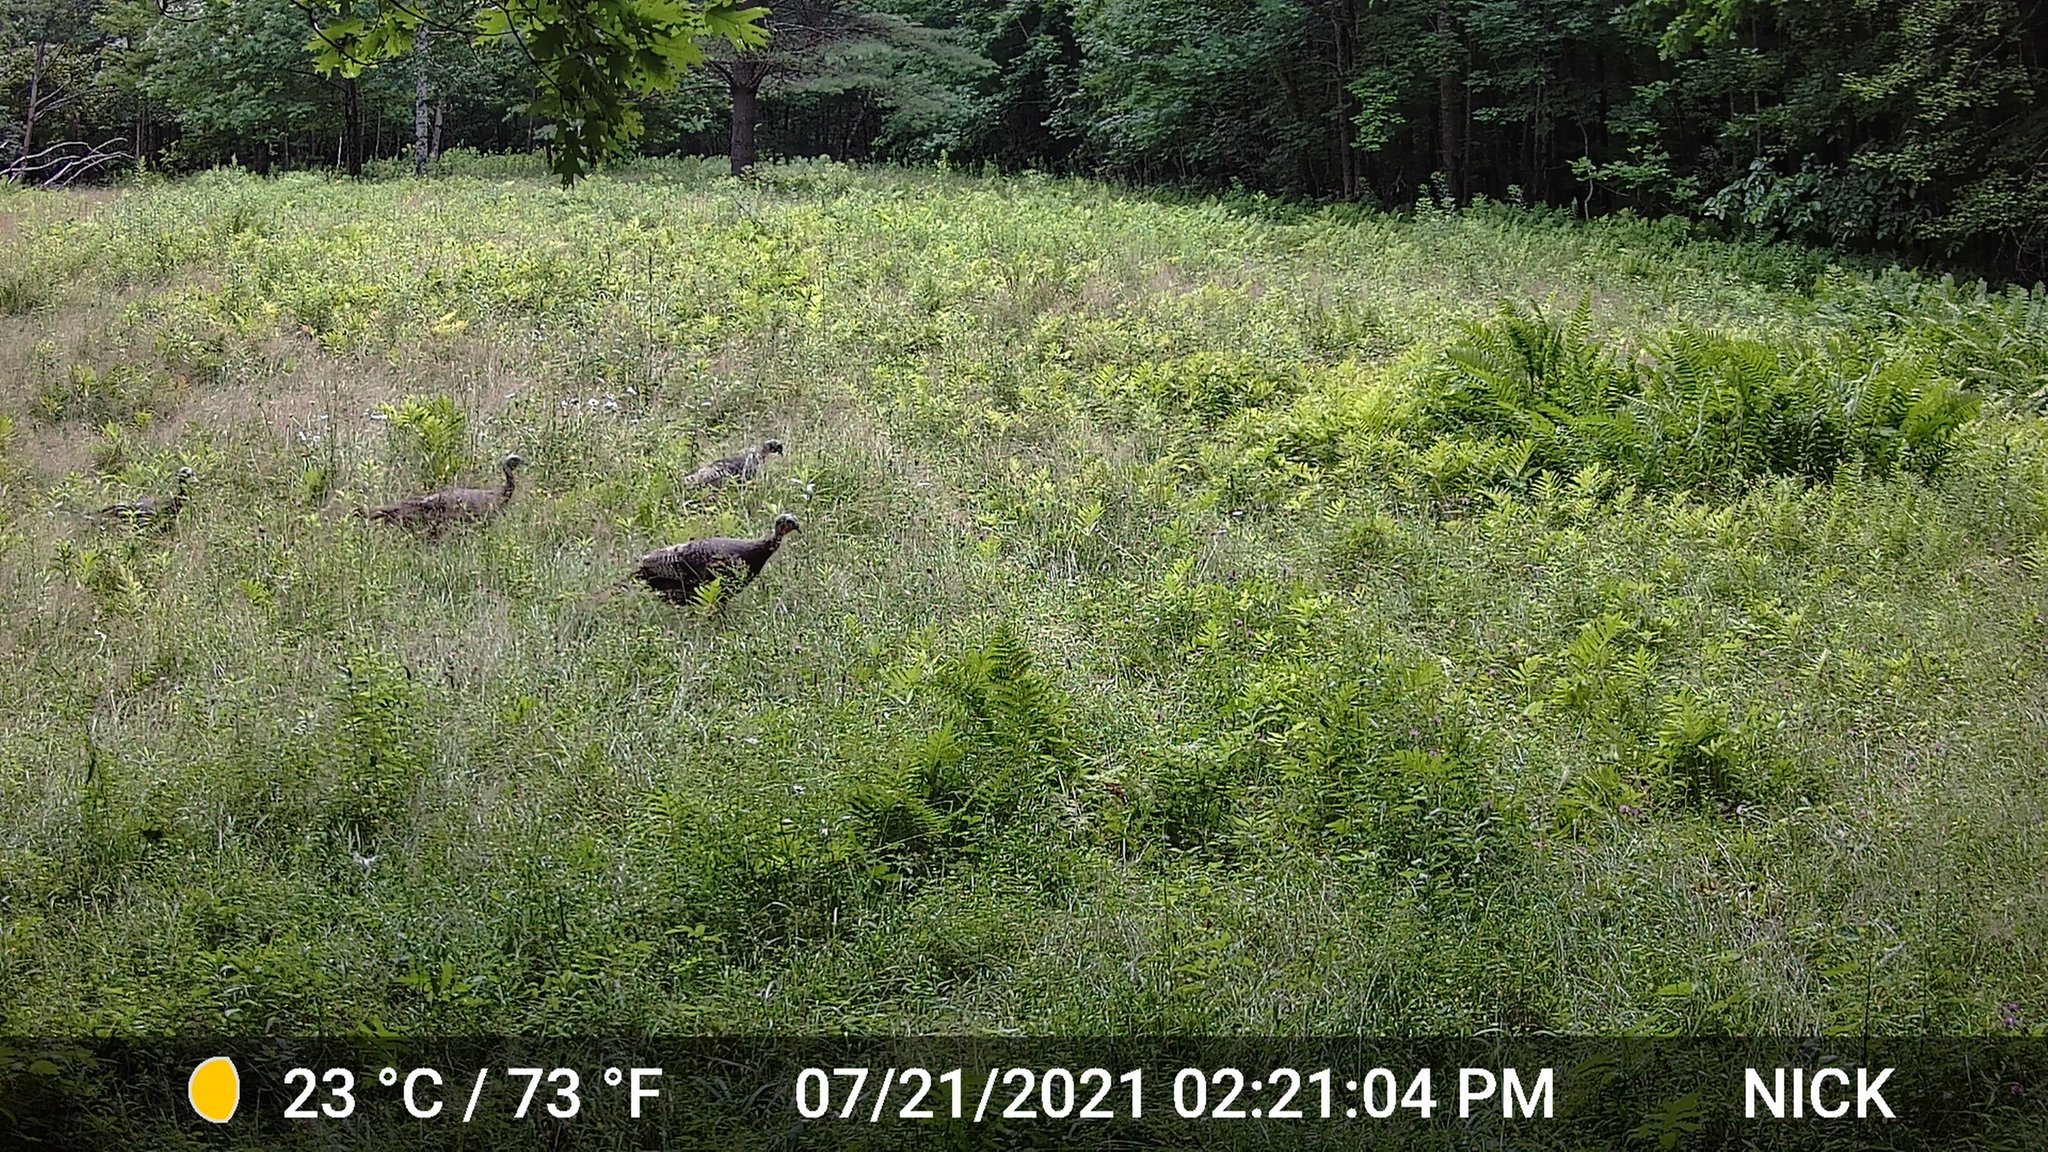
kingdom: Animalia
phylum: Chordata
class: Aves
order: Galliformes
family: Phasianidae
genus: Meleagris
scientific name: Meleagris gallopavo
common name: Wild turkey
